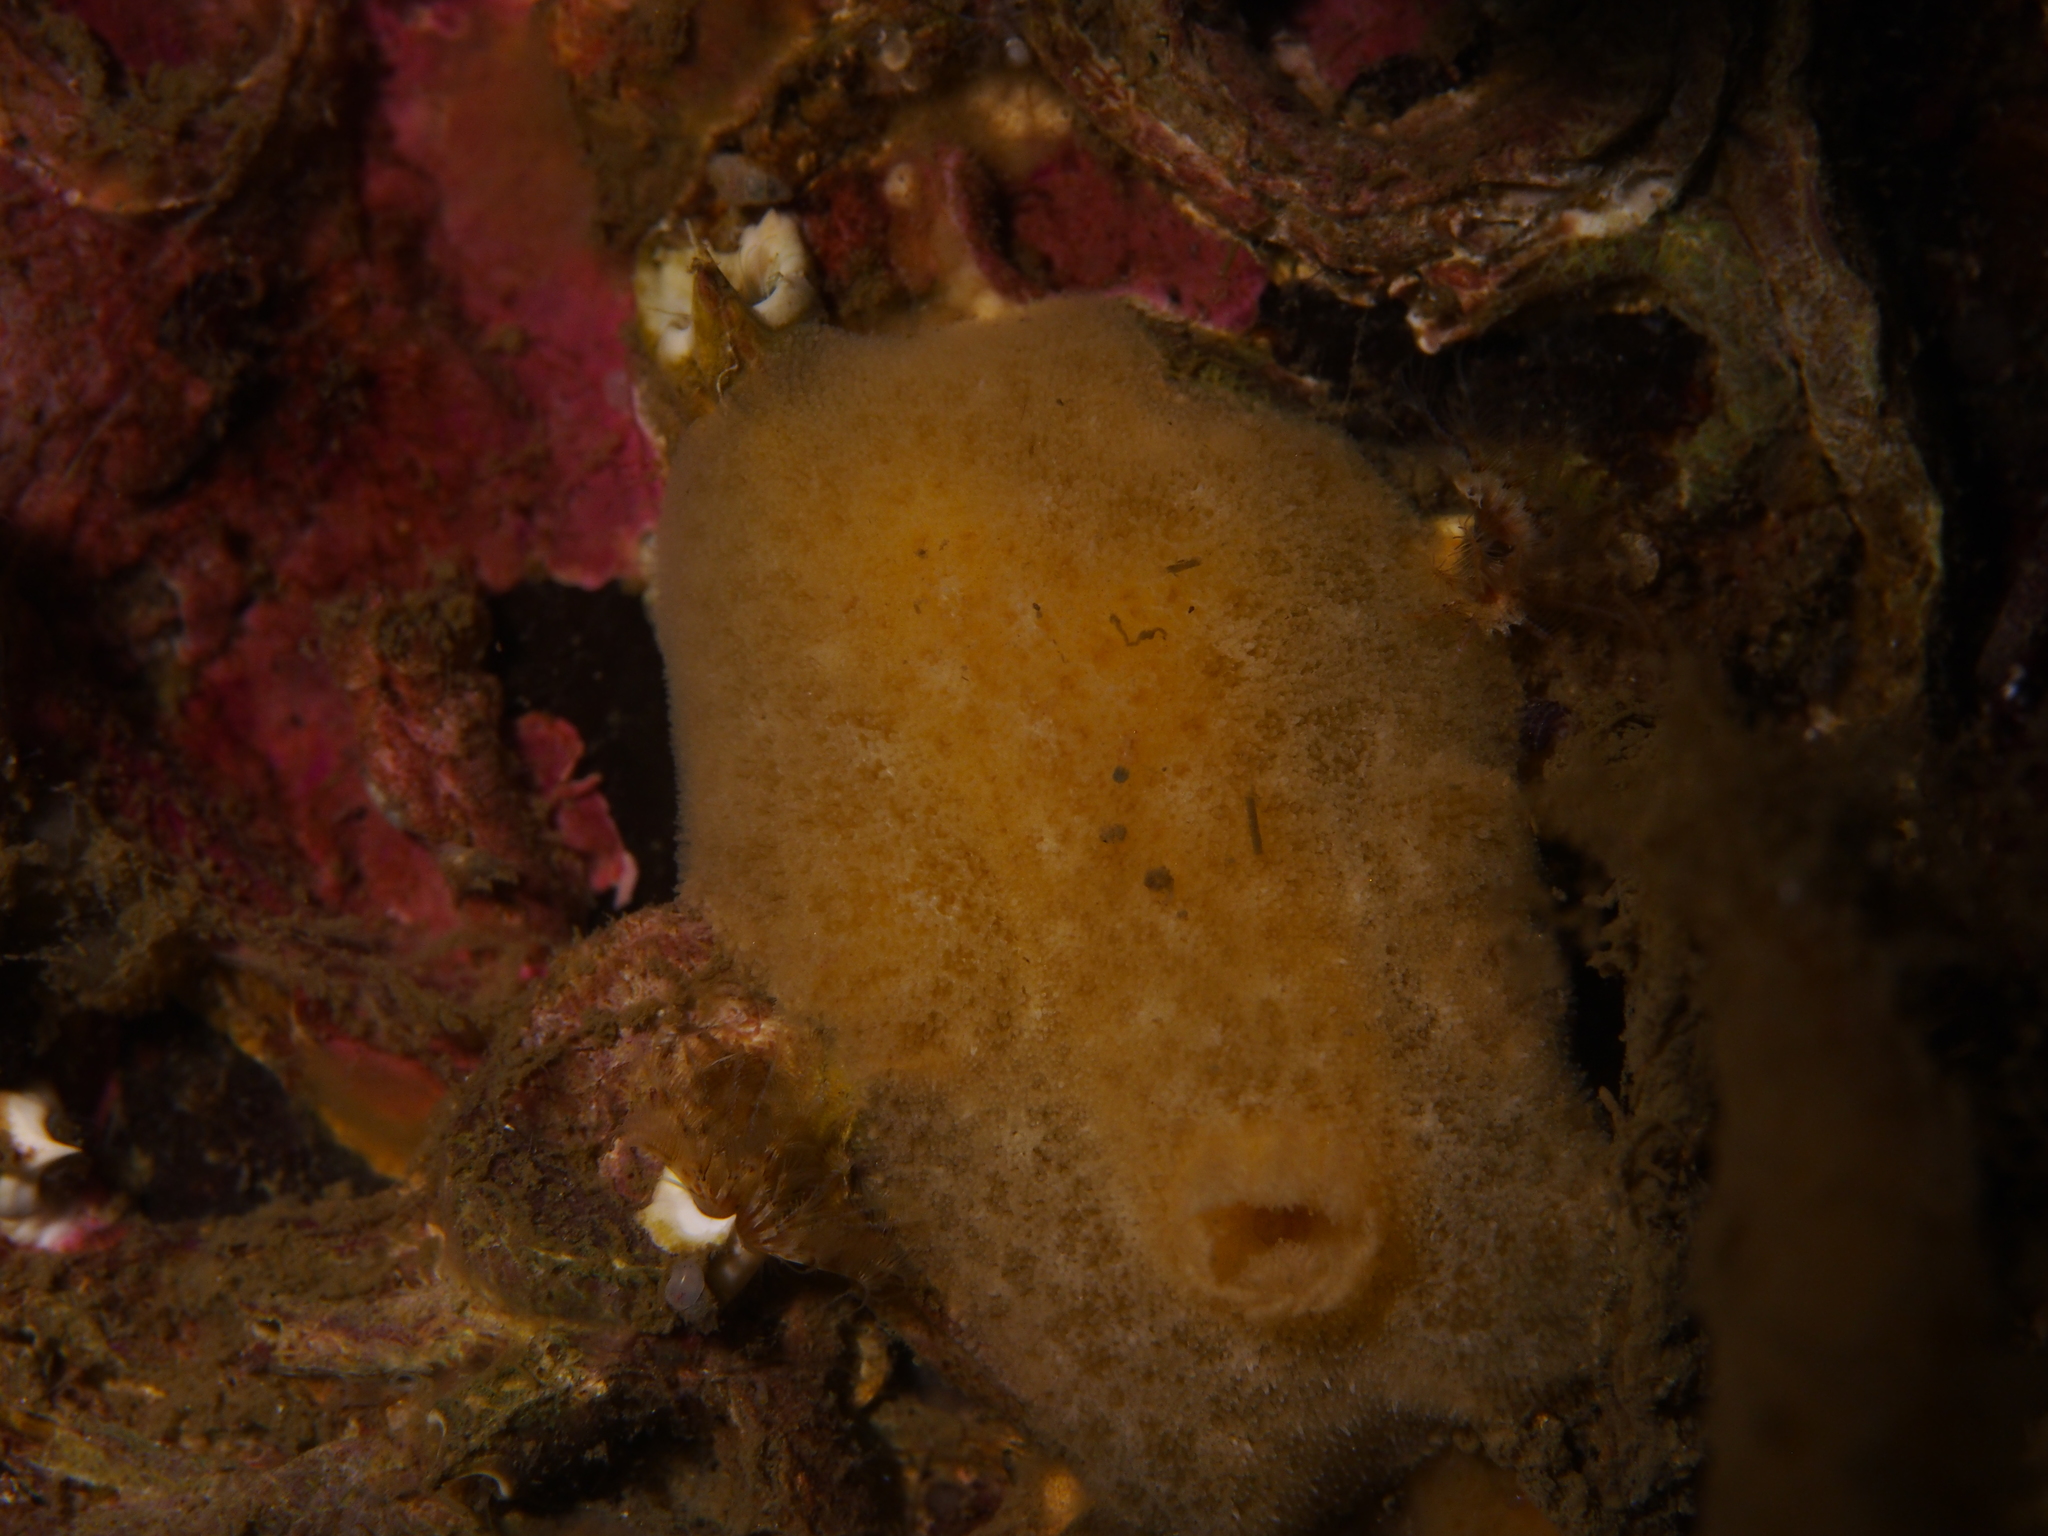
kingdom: Animalia
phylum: Mollusca
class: Gastropoda
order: Nudibranchia
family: Discodorididae
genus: Jorunna
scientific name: Jorunna tomentosa
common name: Grey sea slug
